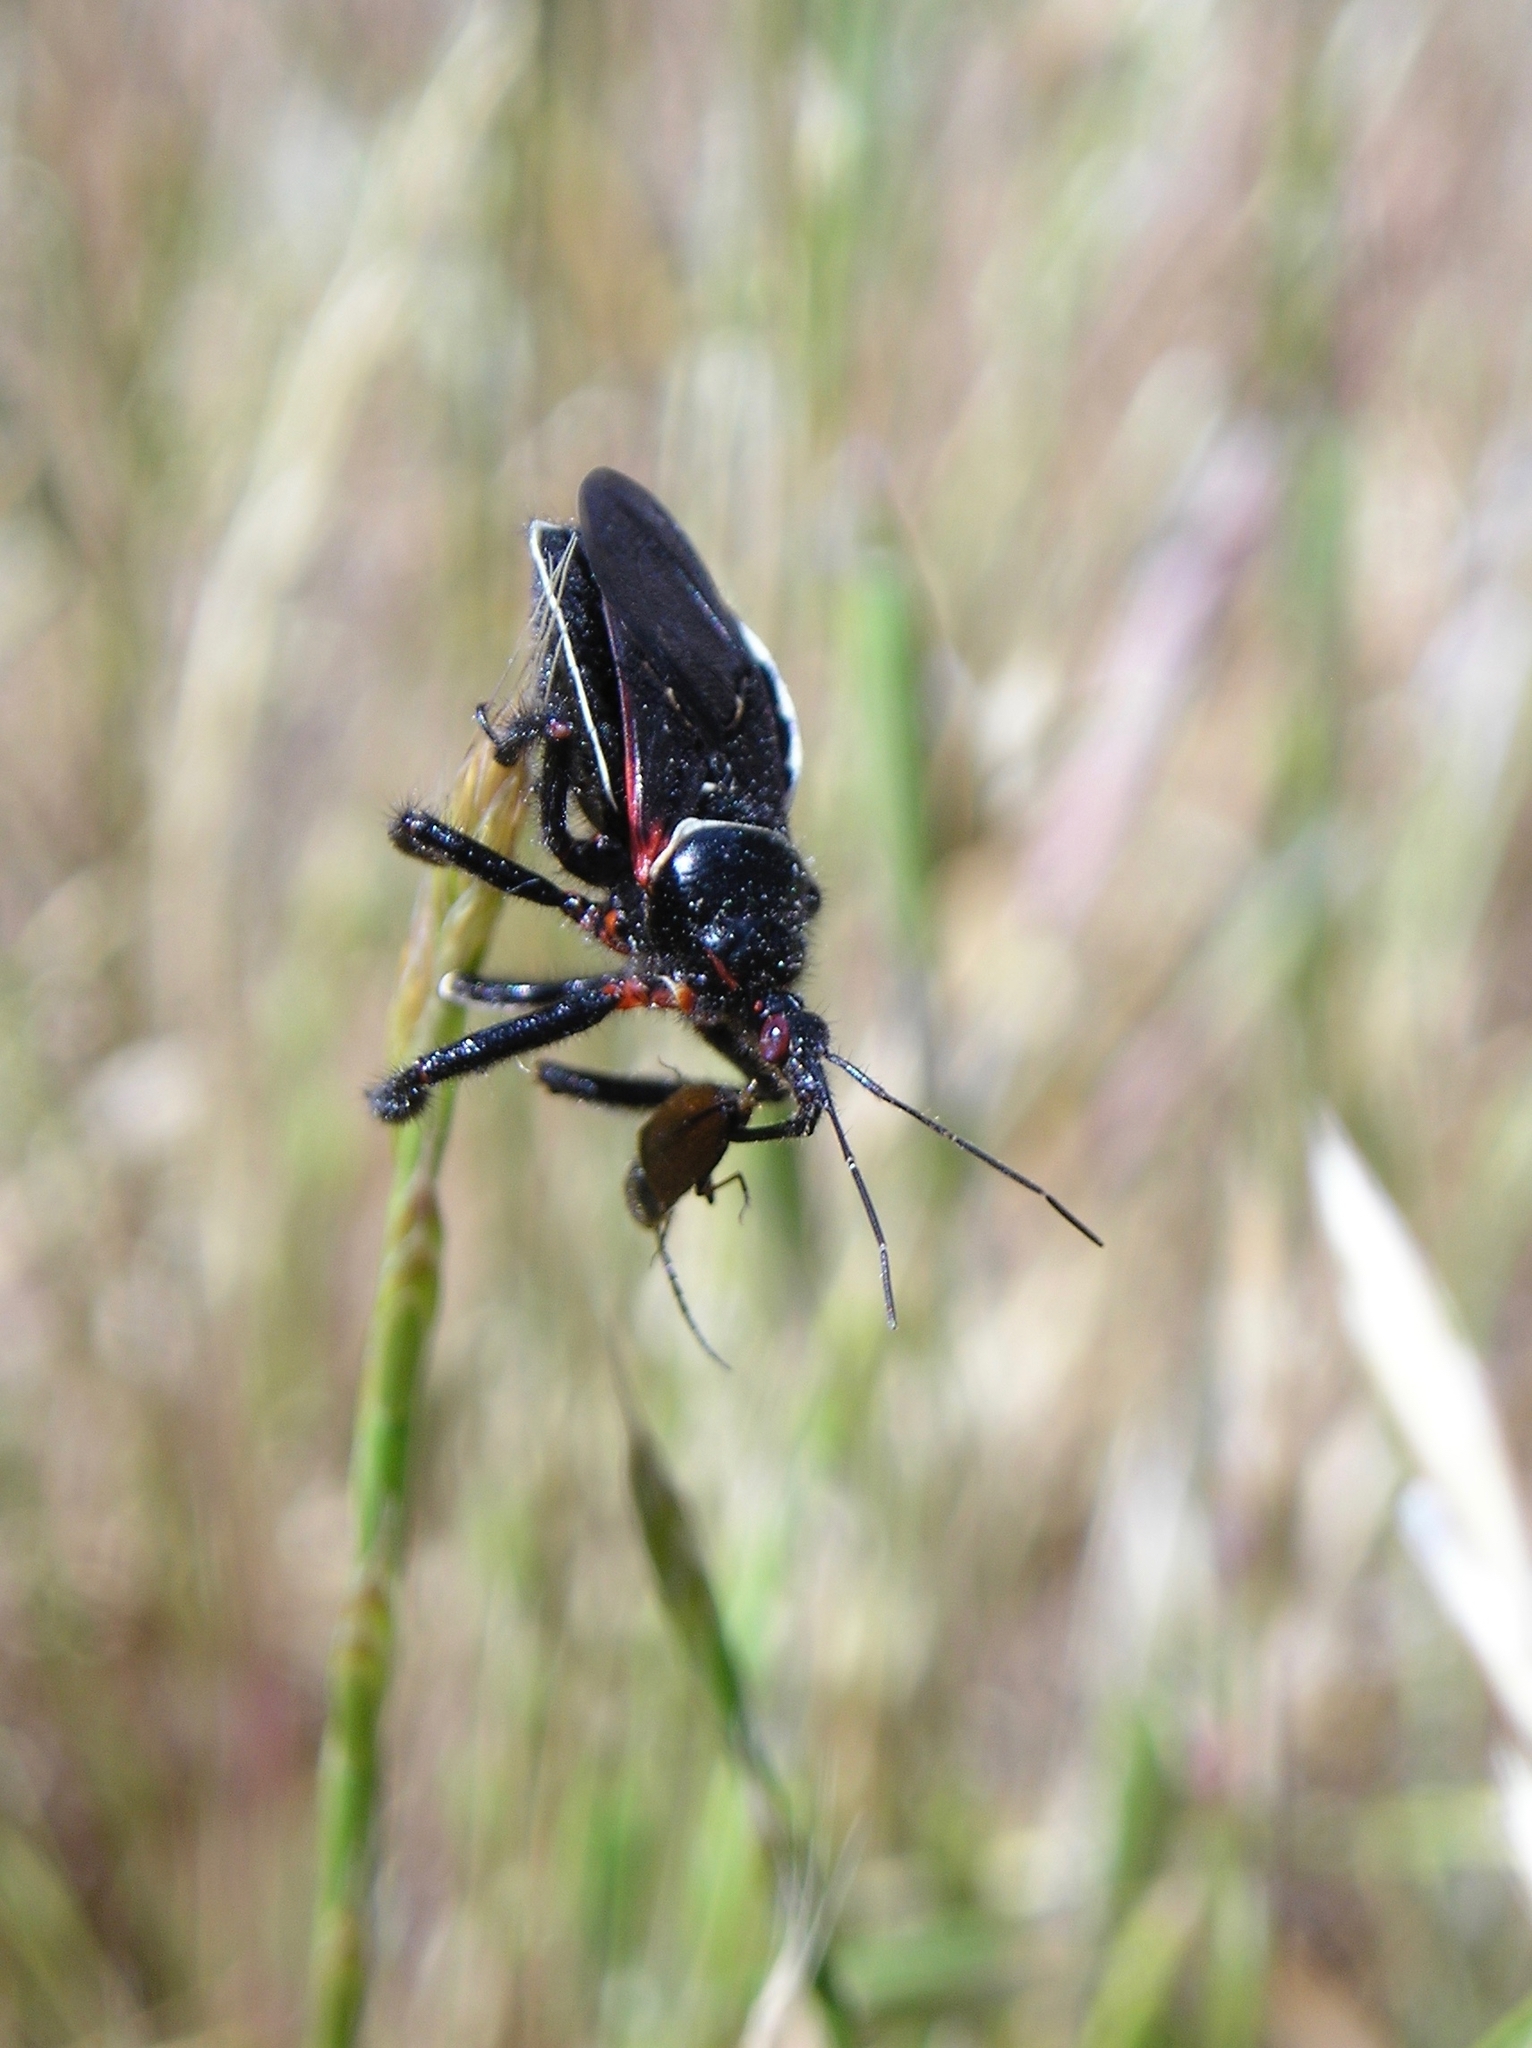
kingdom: Animalia
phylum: Arthropoda
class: Insecta
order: Hemiptera
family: Reduviidae
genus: Apiomerus
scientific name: Apiomerus californicus
